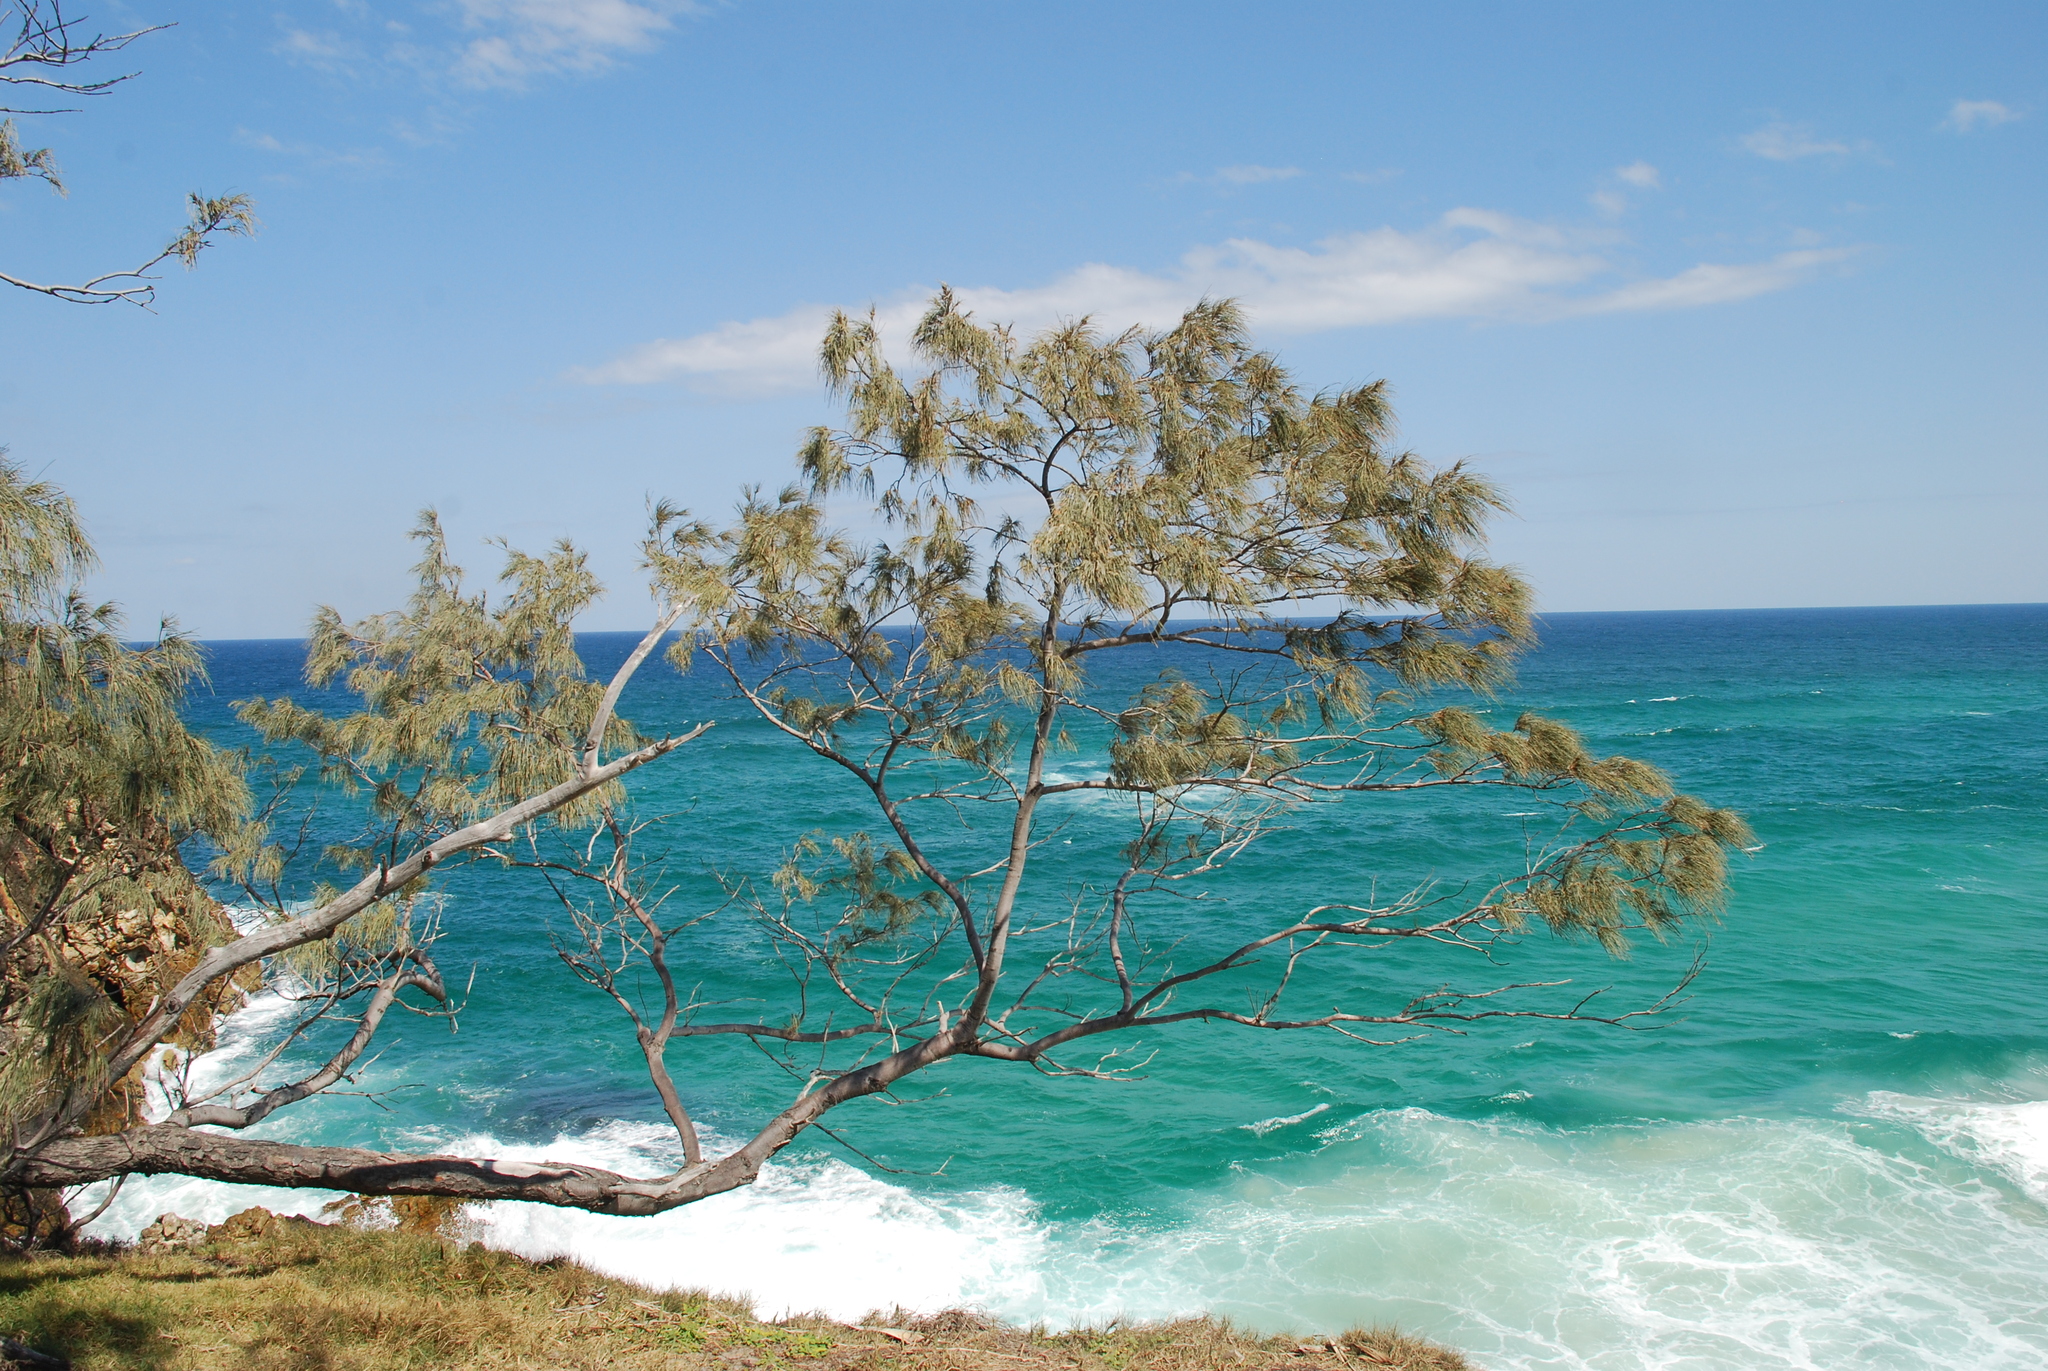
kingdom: Plantae
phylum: Tracheophyta
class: Magnoliopsida
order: Fagales
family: Casuarinaceae
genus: Casuarina
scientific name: Casuarina equisetifolia
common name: Beach sheoak
